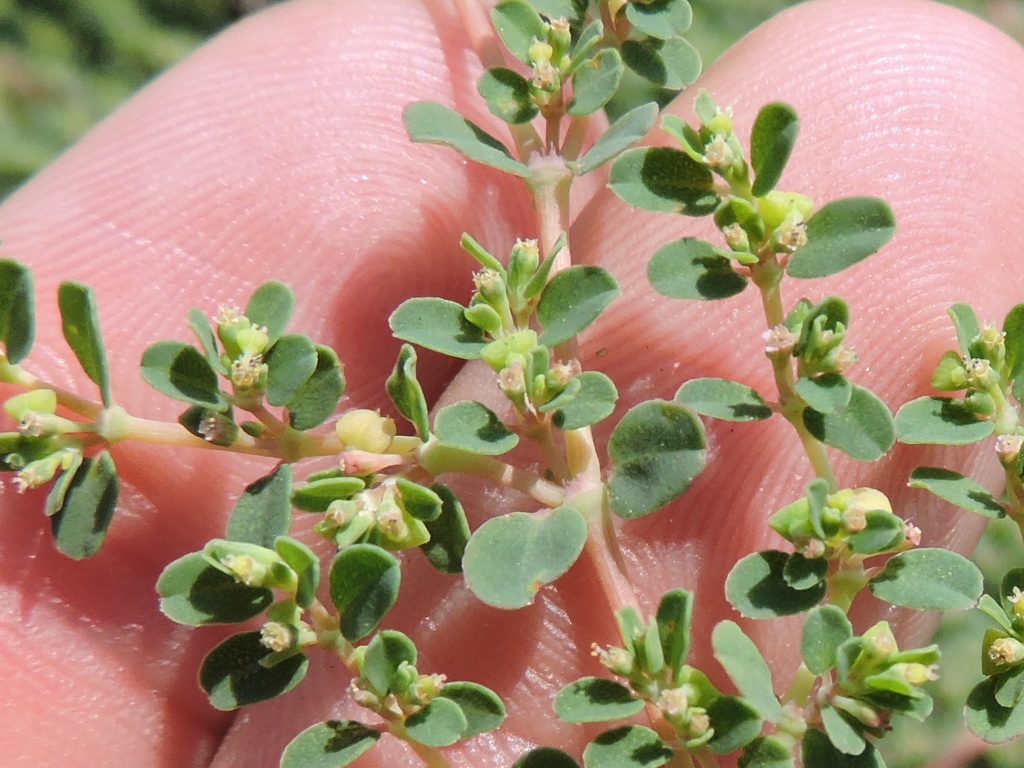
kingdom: Plantae
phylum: Tracheophyta
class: Magnoliopsida
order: Malpighiales
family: Euphorbiaceae
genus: Euphorbia
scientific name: Euphorbia serpens
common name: Matted sandmat
